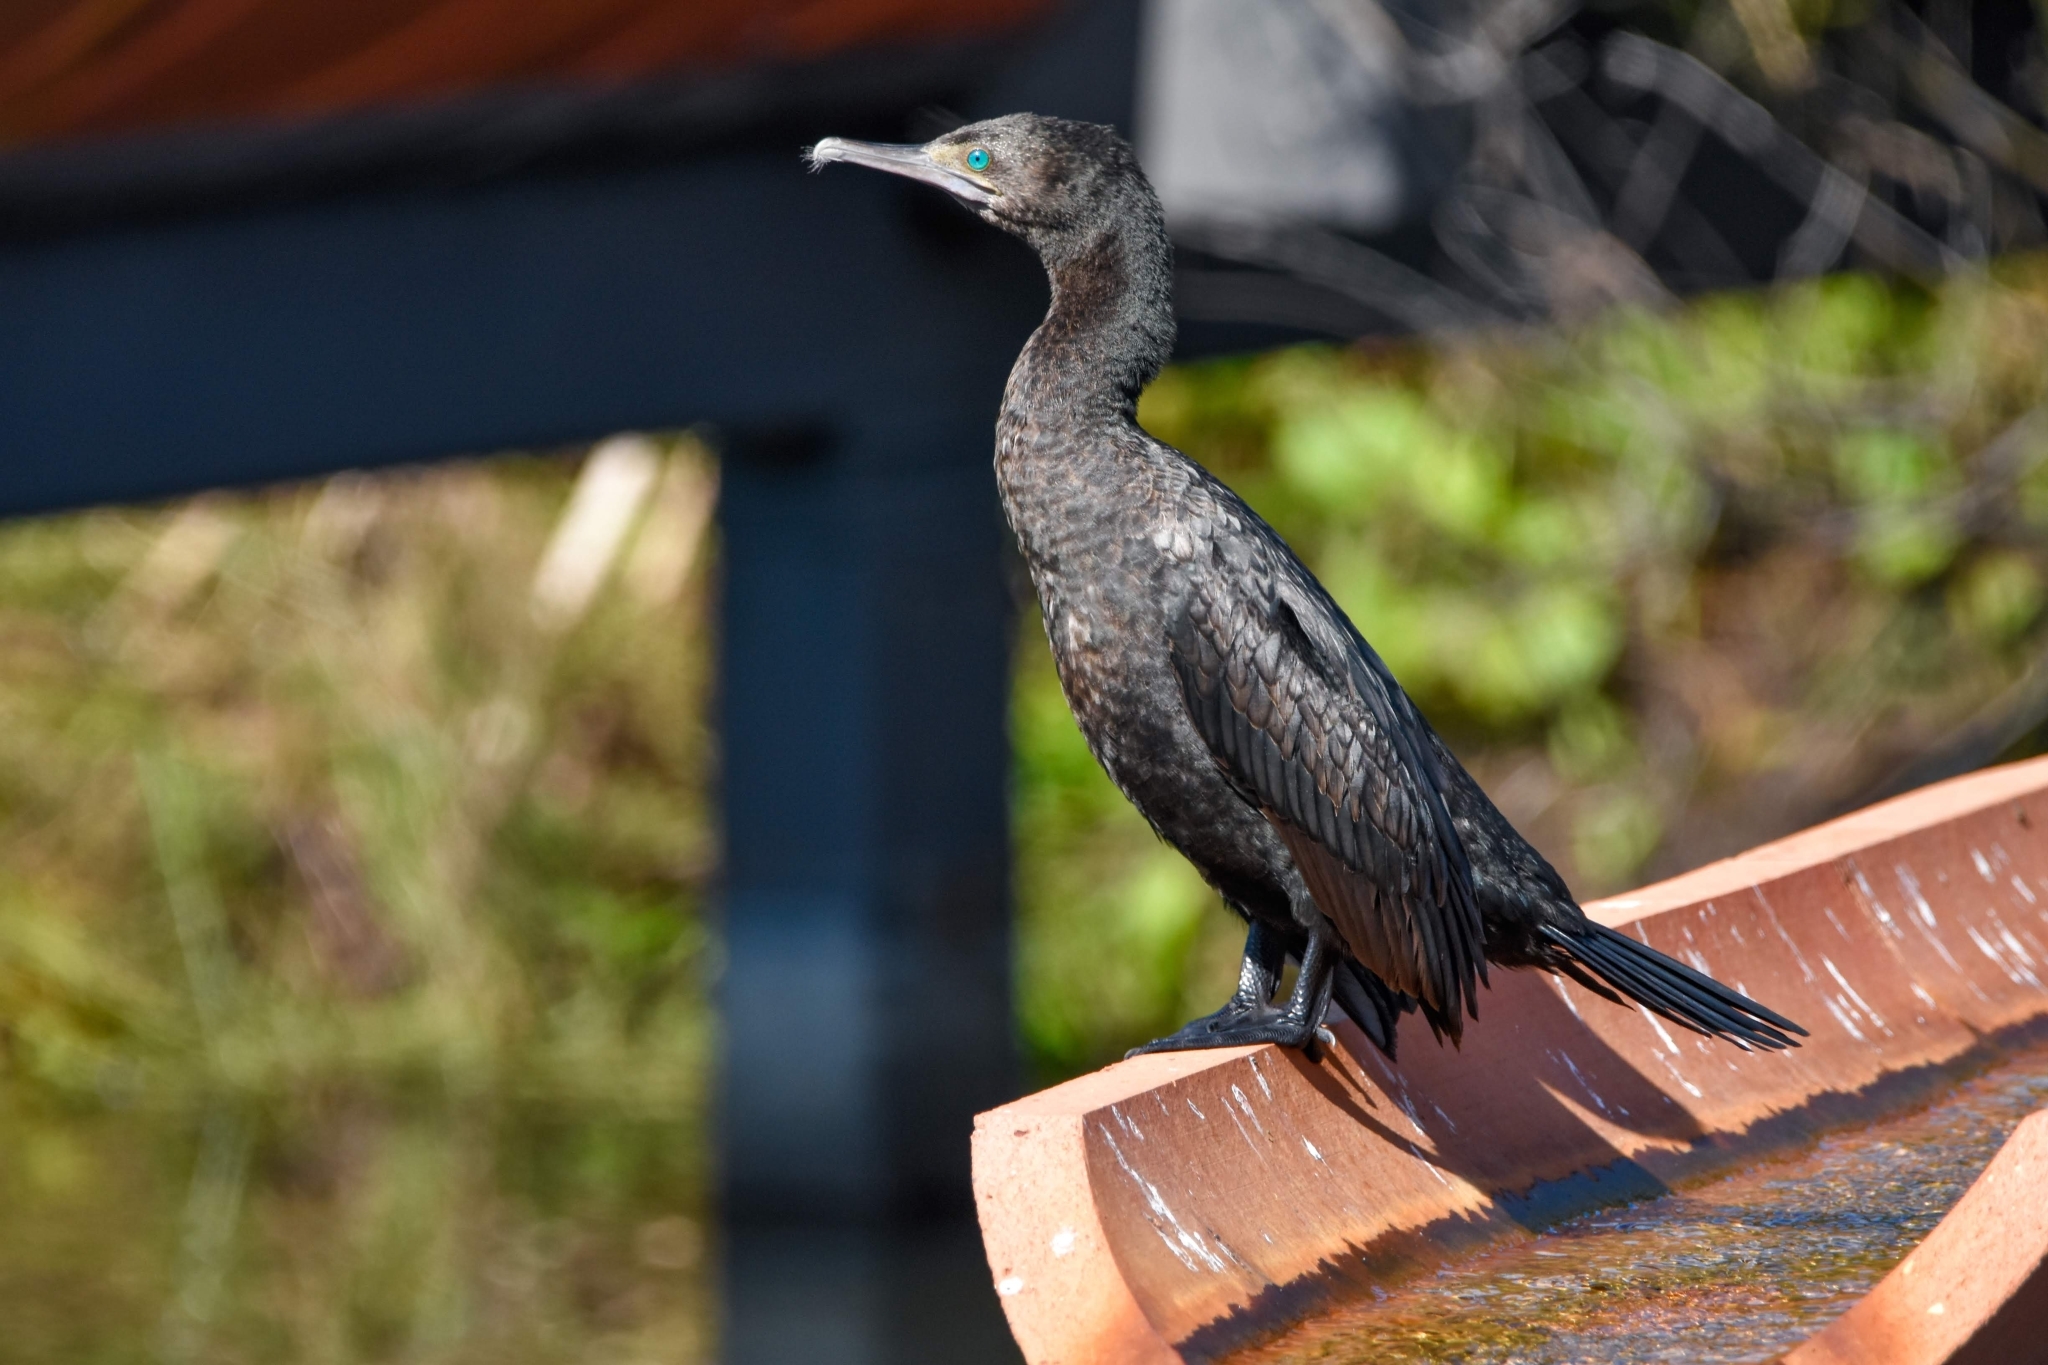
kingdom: Animalia
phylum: Chordata
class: Aves
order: Suliformes
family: Phalacrocoracidae
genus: Phalacrocorax
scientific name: Phalacrocorax sulcirostris
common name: Little black cormorant
